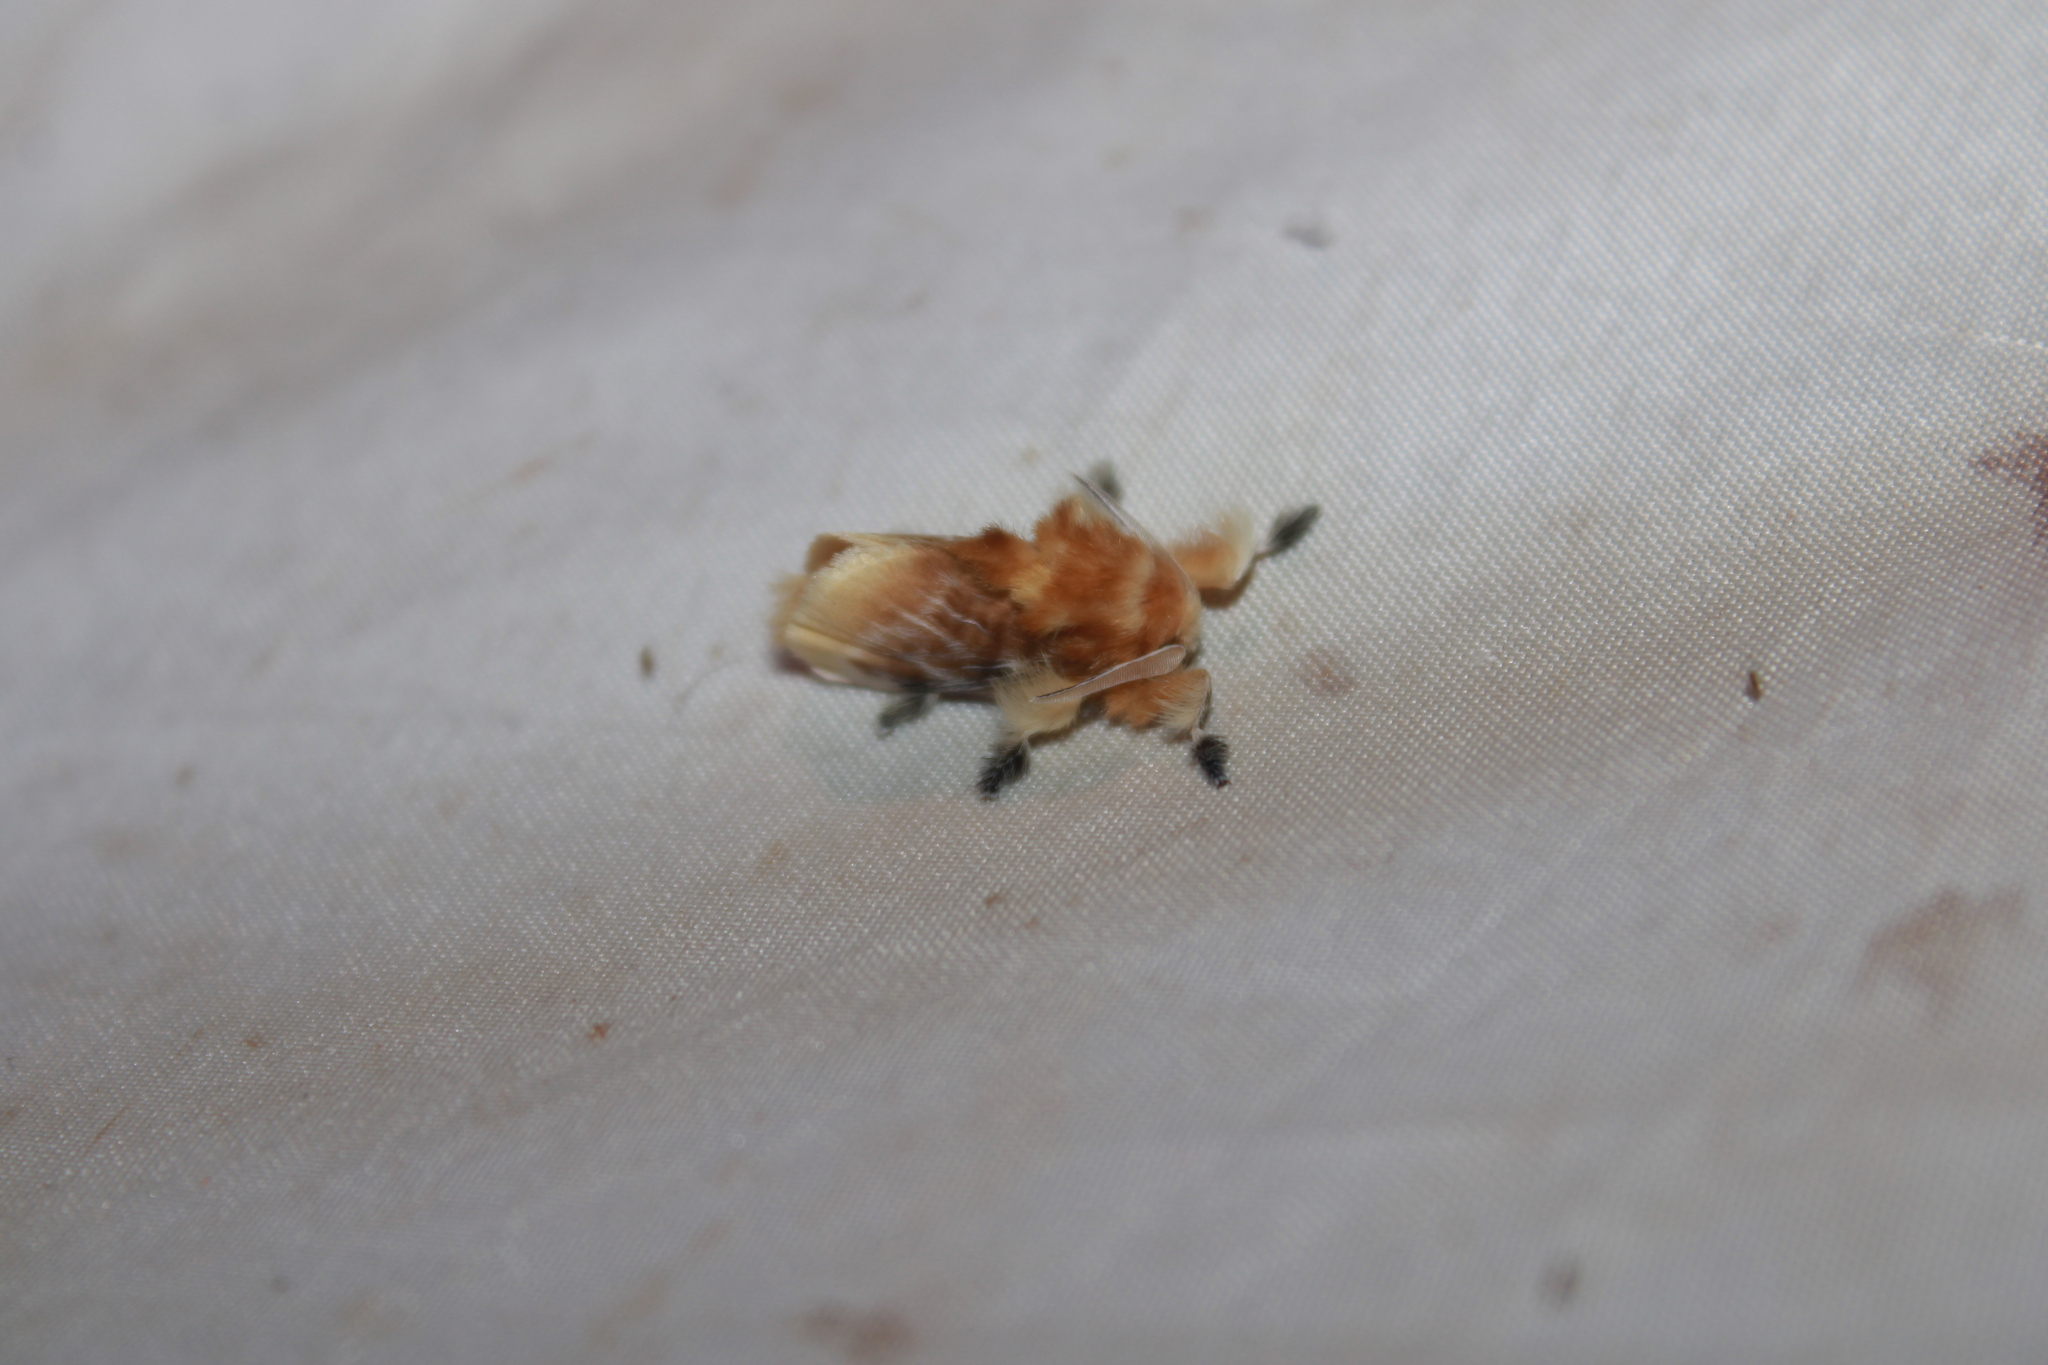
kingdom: Animalia
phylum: Arthropoda
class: Insecta
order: Lepidoptera
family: Megalopygidae
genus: Megalopyge
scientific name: Megalopyge opercularis
